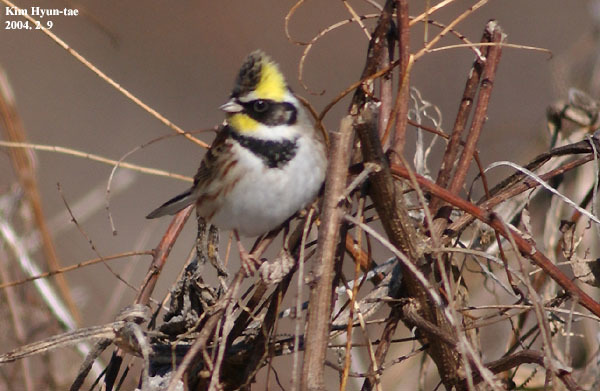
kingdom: Animalia
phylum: Chordata
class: Aves
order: Passeriformes
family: Emberizidae
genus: Emberiza
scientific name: Emberiza elegans
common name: Yellow-throated bunting
